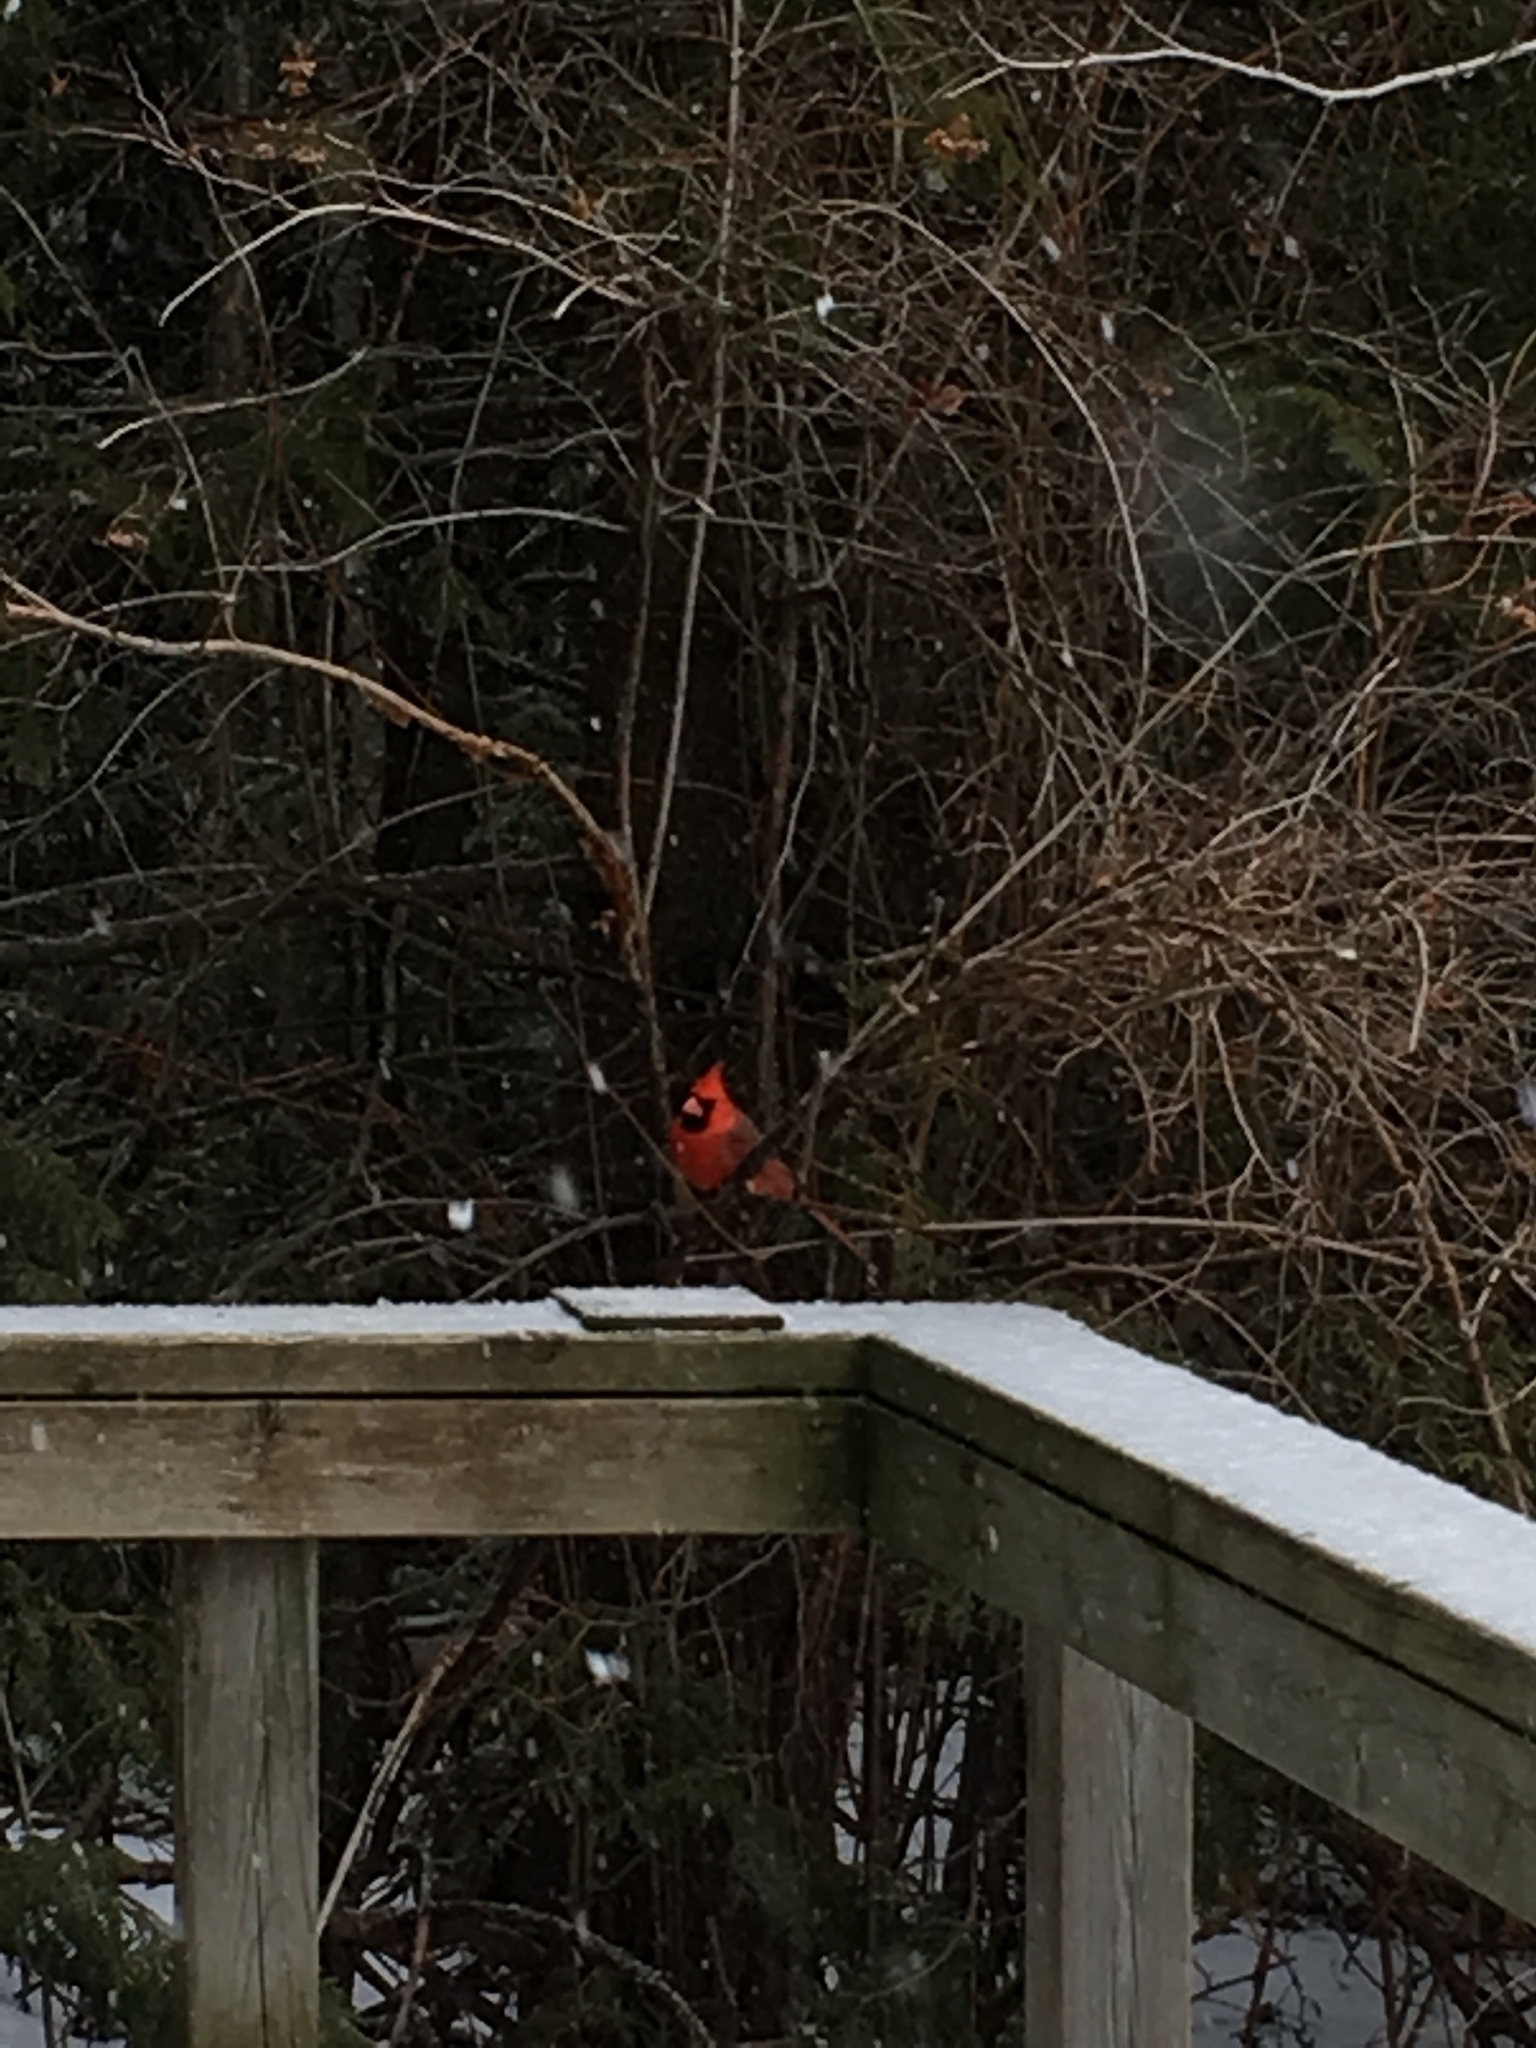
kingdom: Animalia
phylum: Chordata
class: Aves
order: Passeriformes
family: Cardinalidae
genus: Cardinalis
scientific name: Cardinalis cardinalis
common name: Northern cardinal
